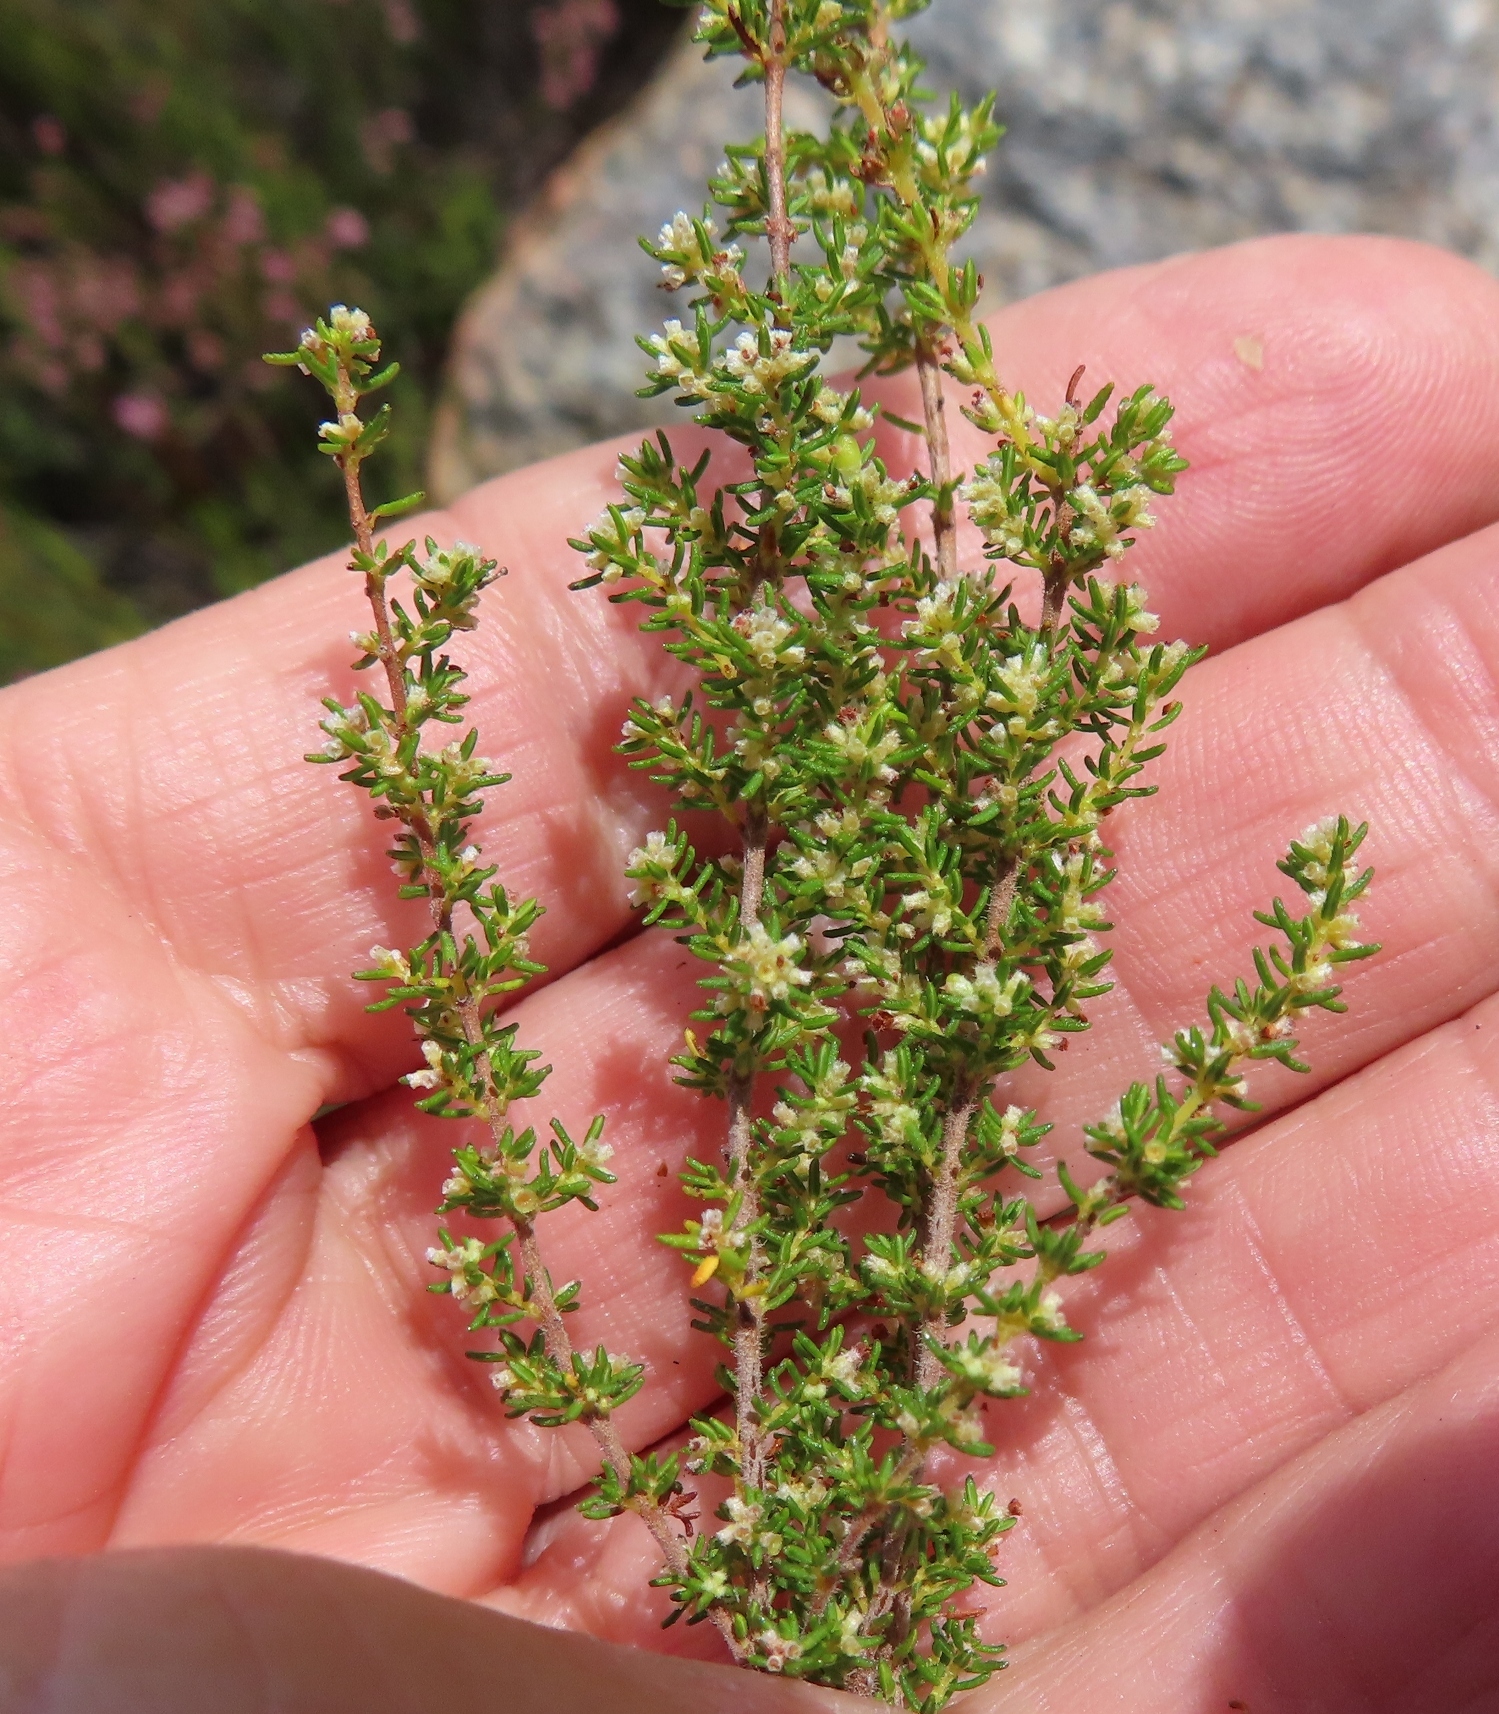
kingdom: Plantae
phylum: Tracheophyta
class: Magnoliopsida
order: Ericales
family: Ericaceae
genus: Erica
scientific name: Erica muscosa
